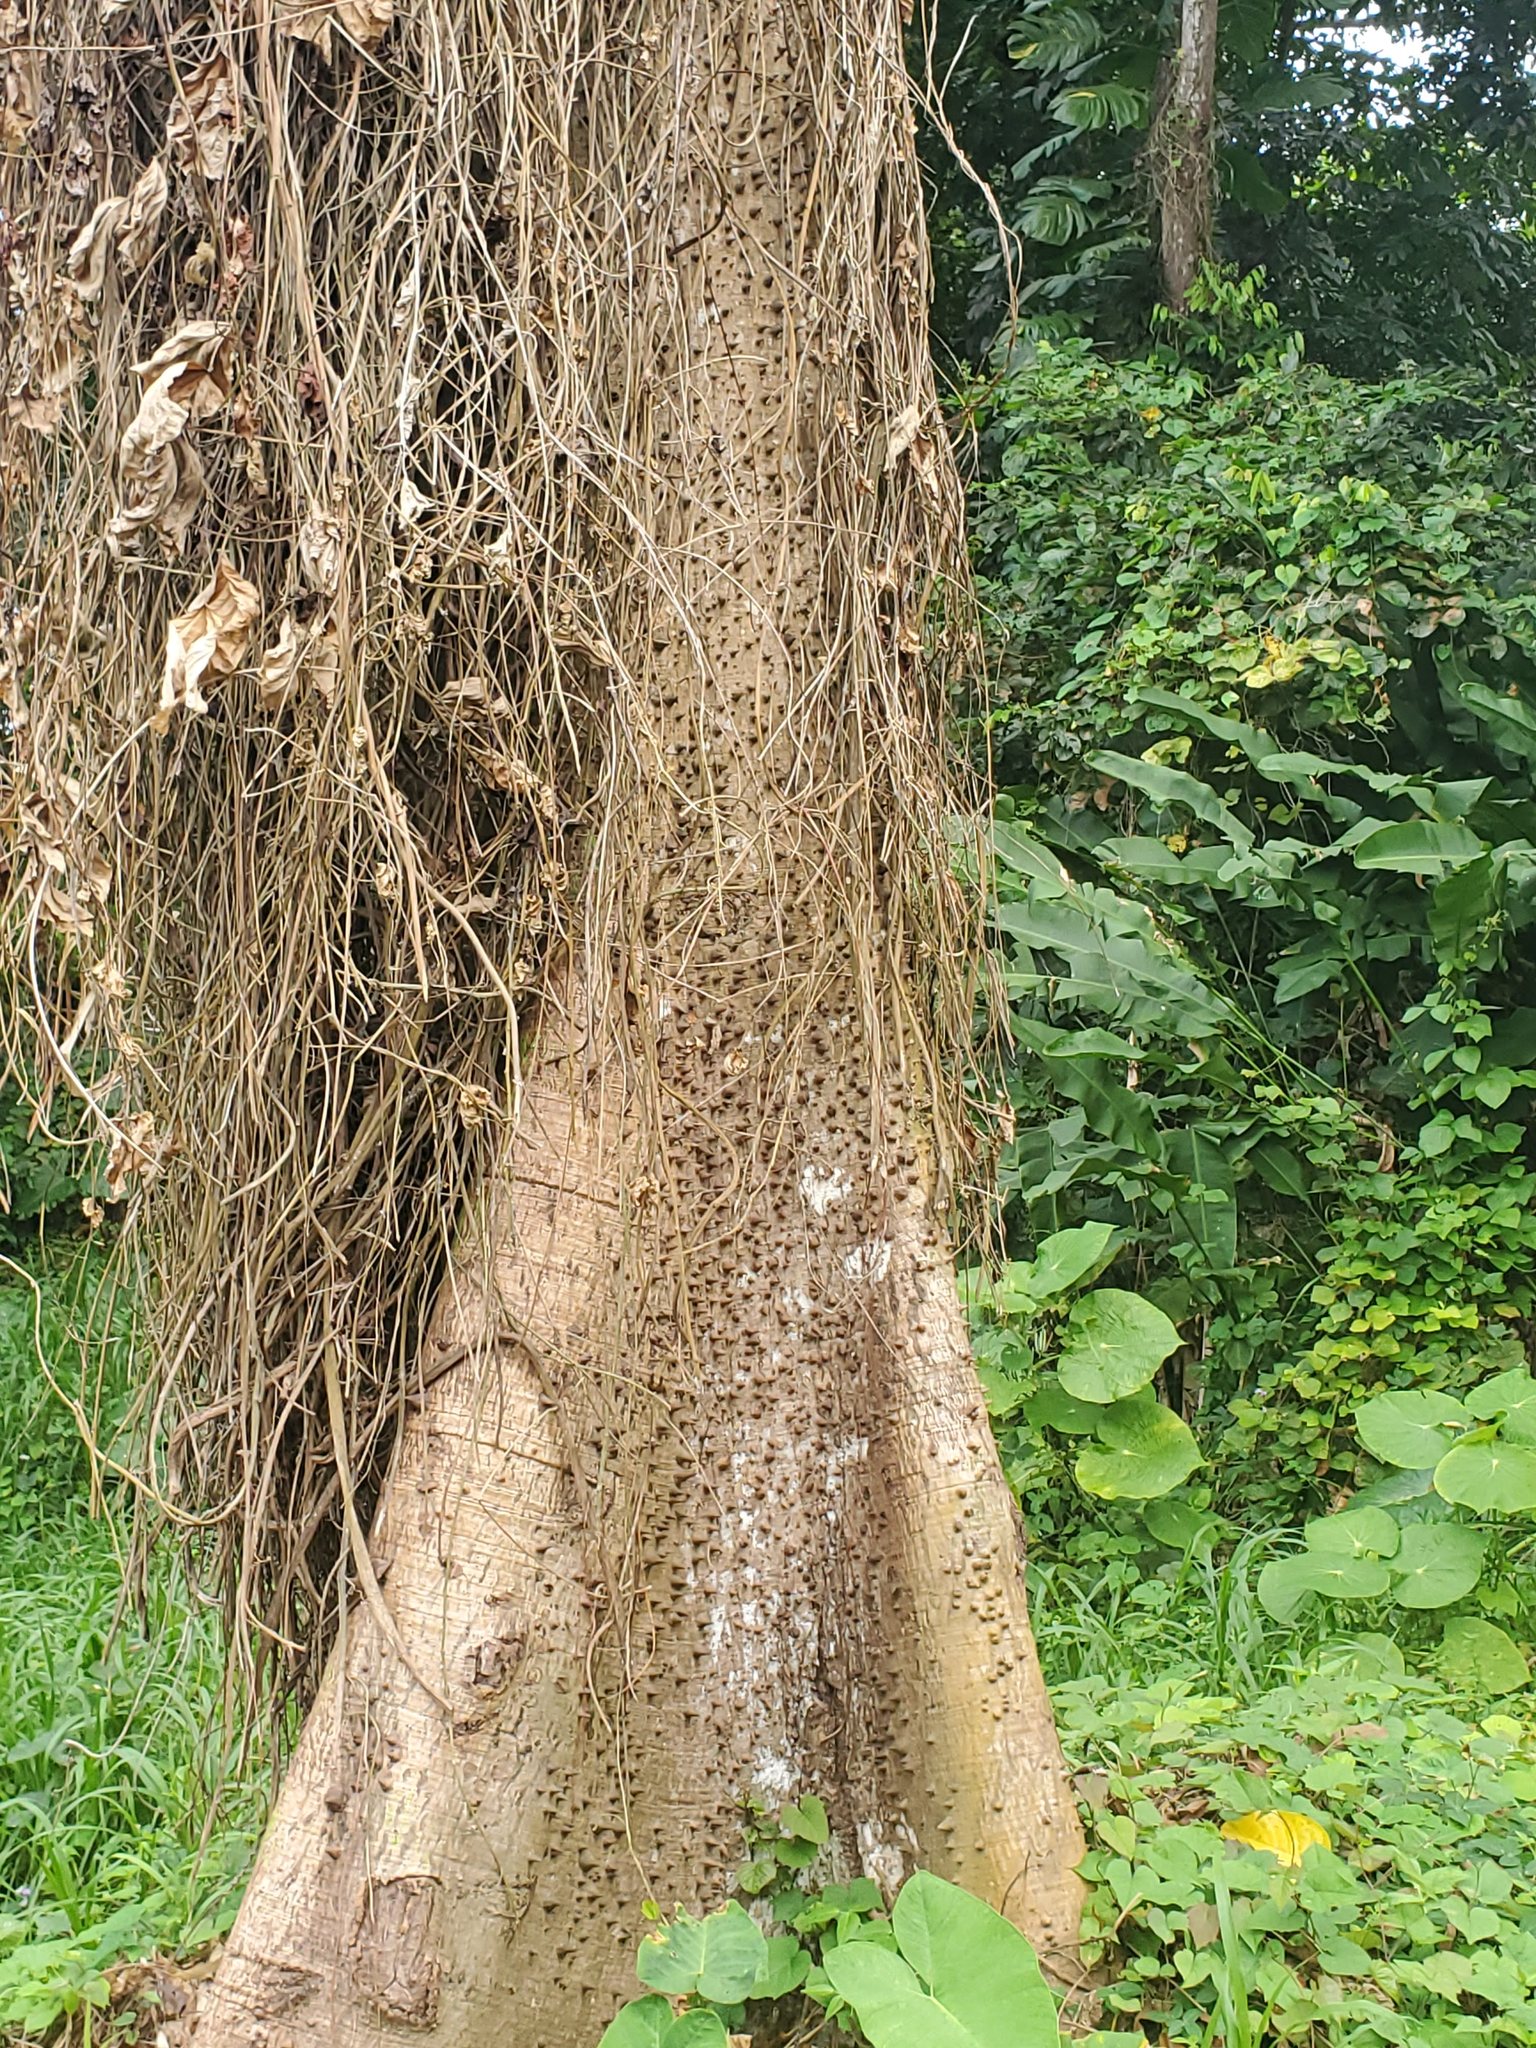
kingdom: Plantae
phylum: Tracheophyta
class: Magnoliopsida
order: Malvales
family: Malvaceae
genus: Ceiba
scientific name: Ceiba pentandra
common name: Kapok
